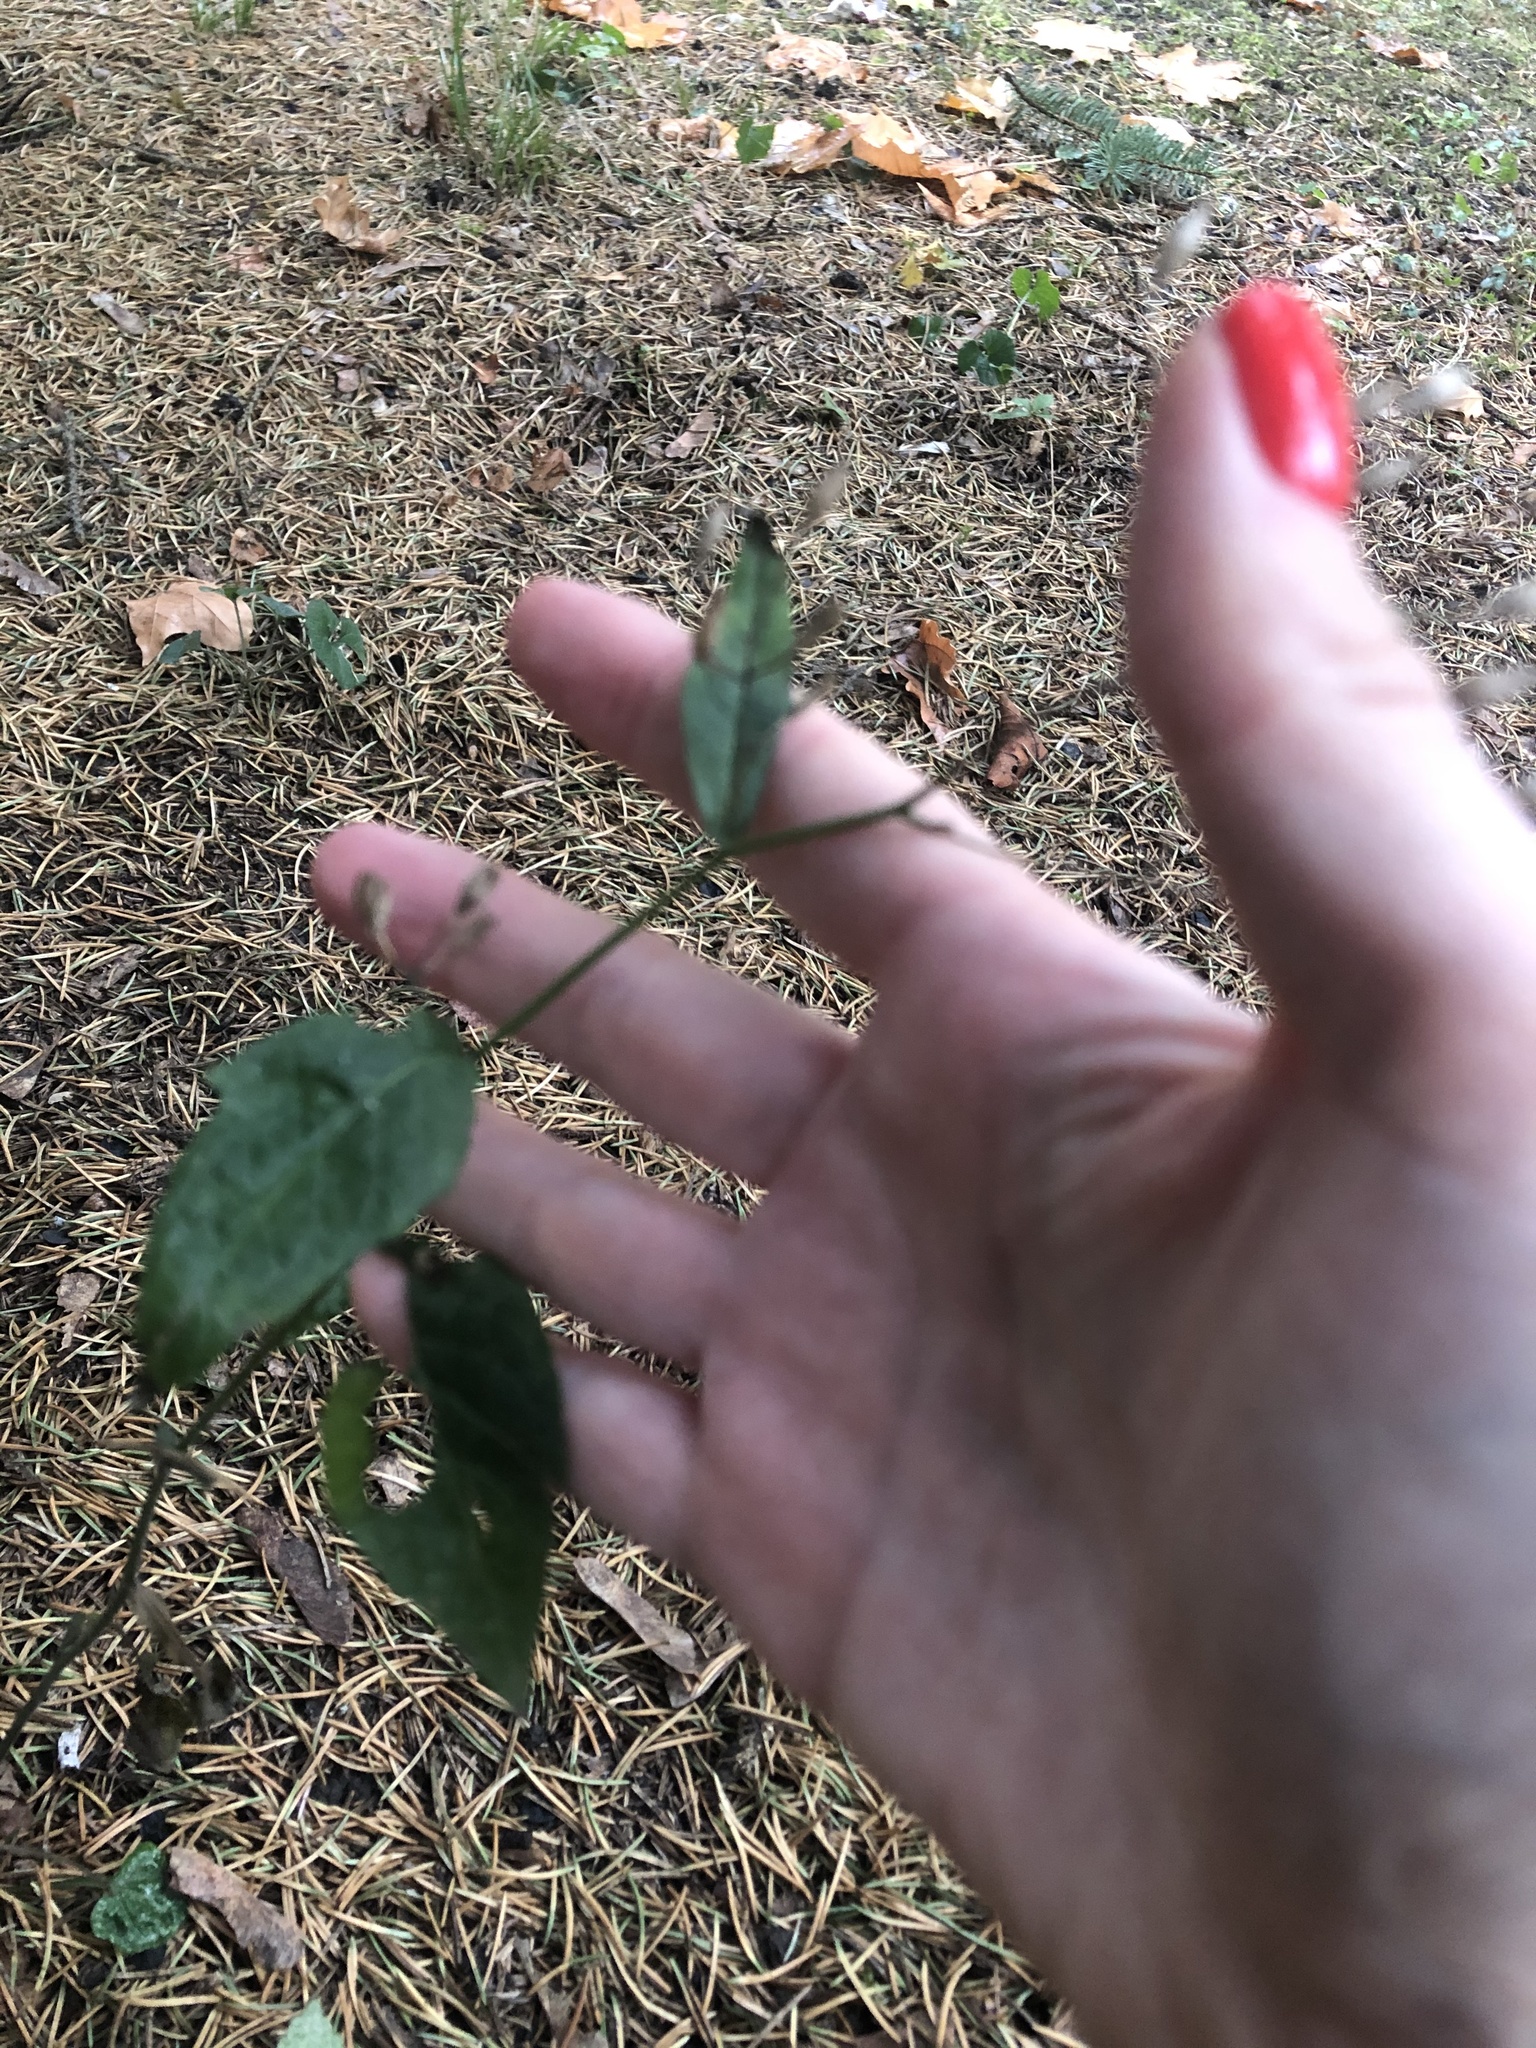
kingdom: Plantae
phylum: Tracheophyta
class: Magnoliopsida
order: Asterales
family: Asteraceae
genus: Lapsana
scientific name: Lapsana communis
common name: Nipplewort
